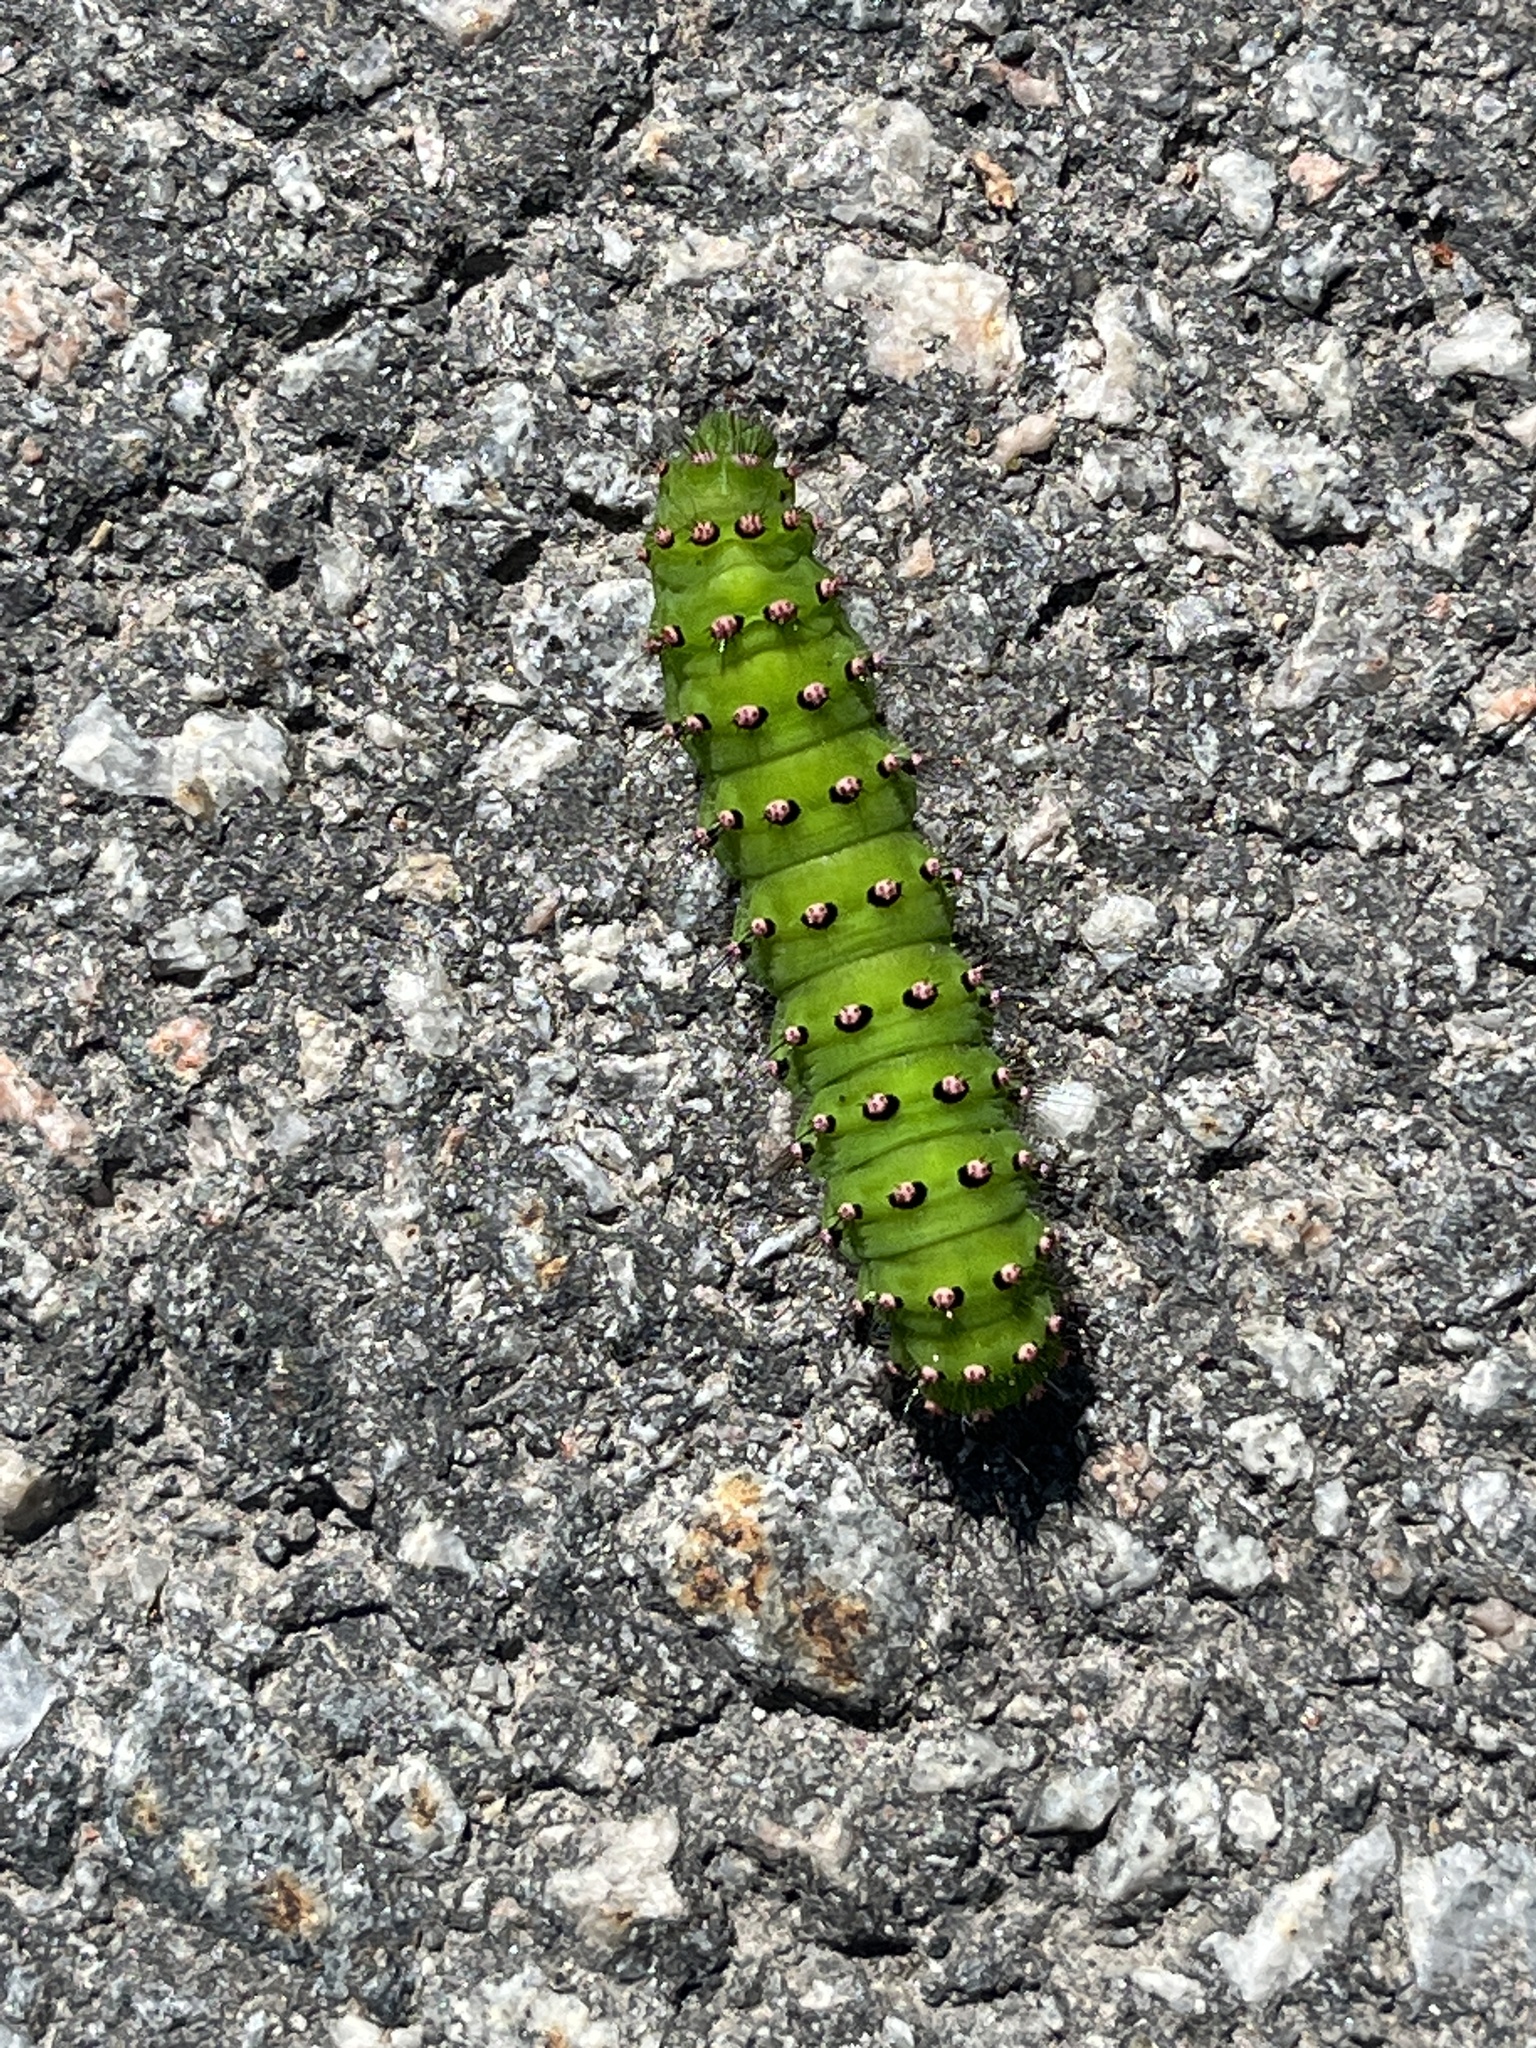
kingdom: Animalia
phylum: Arthropoda
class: Insecta
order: Lepidoptera
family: Saturniidae
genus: Saturnia
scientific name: Saturnia pavonia
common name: Emperor moth
